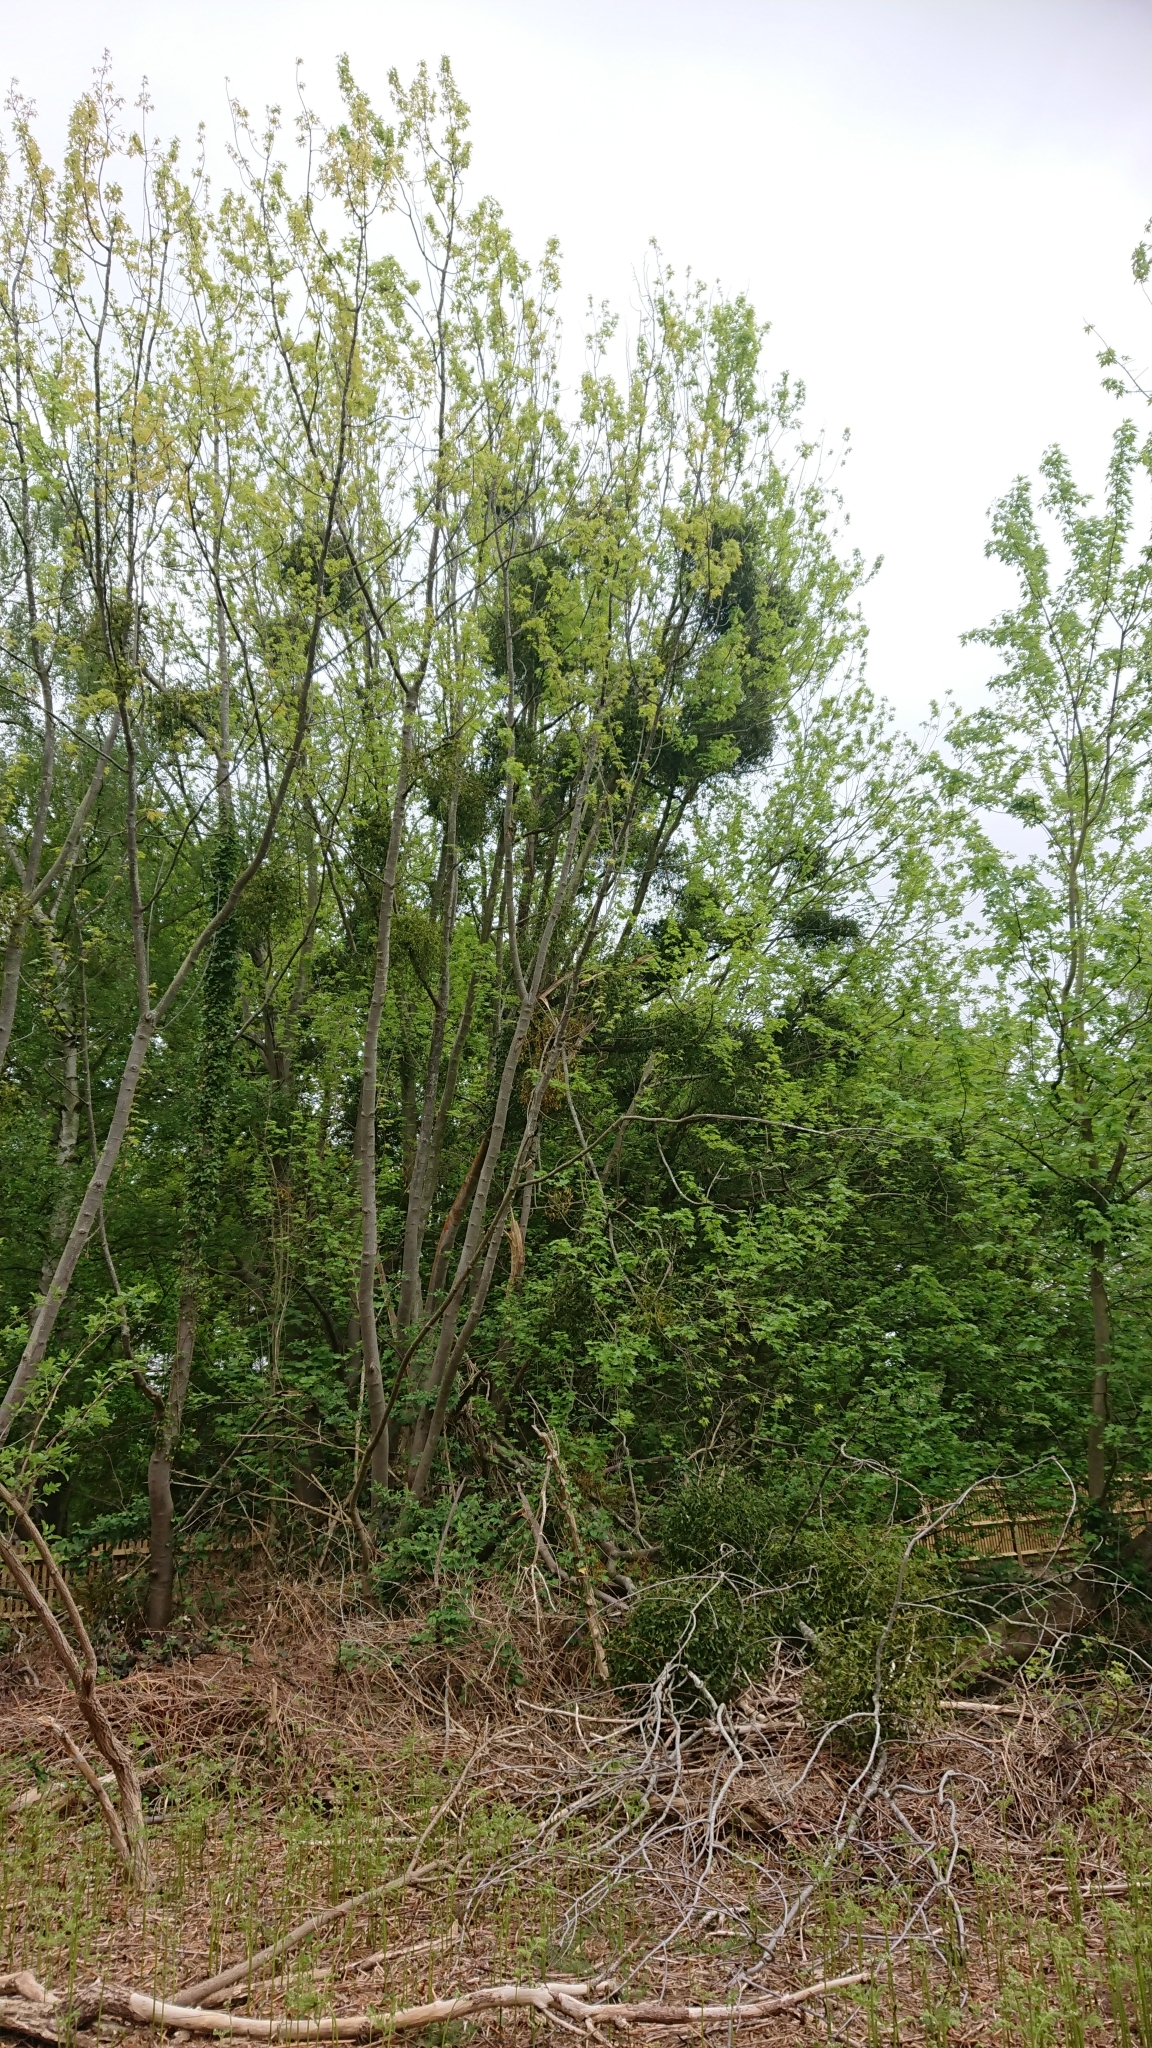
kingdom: Plantae
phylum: Tracheophyta
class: Magnoliopsida
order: Santalales
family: Viscaceae
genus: Viscum
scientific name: Viscum album
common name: Mistletoe
